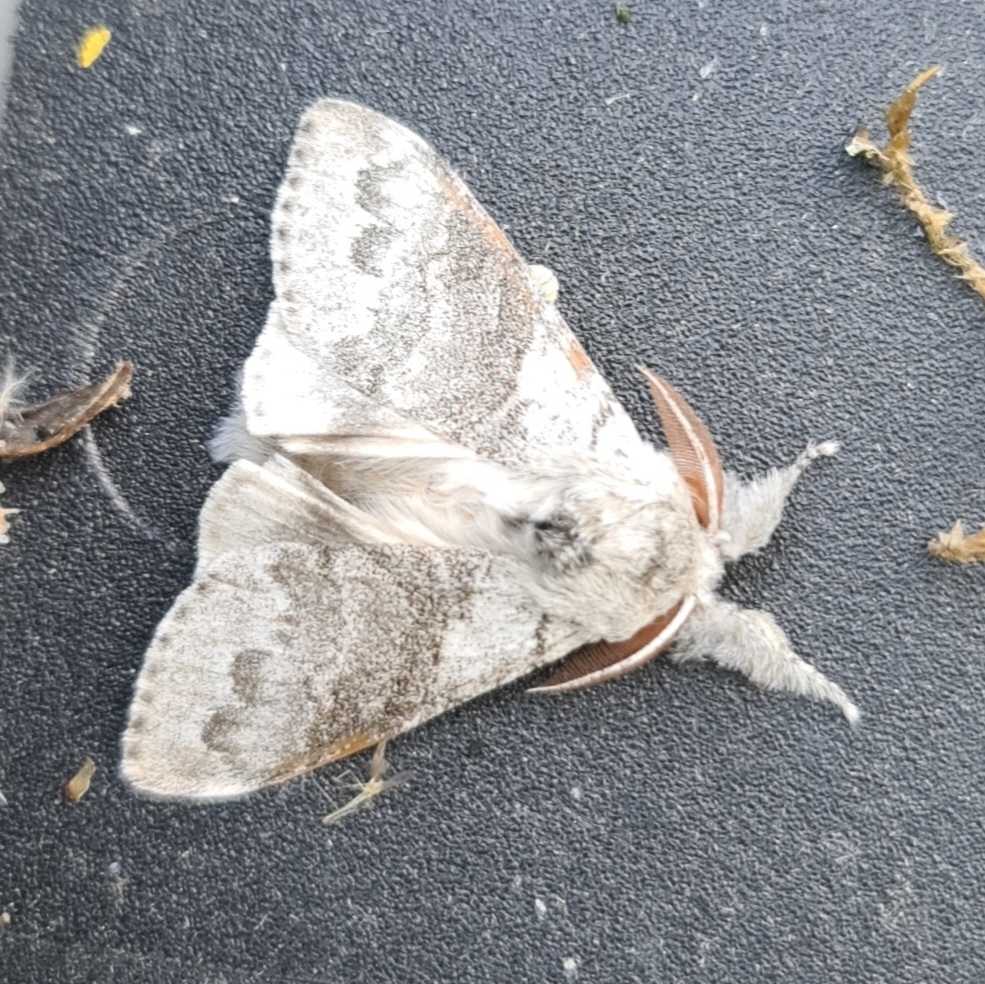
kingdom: Animalia
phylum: Arthropoda
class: Insecta
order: Lepidoptera
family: Erebidae
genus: Calliteara
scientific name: Calliteara pudibunda
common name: Pale tussock
